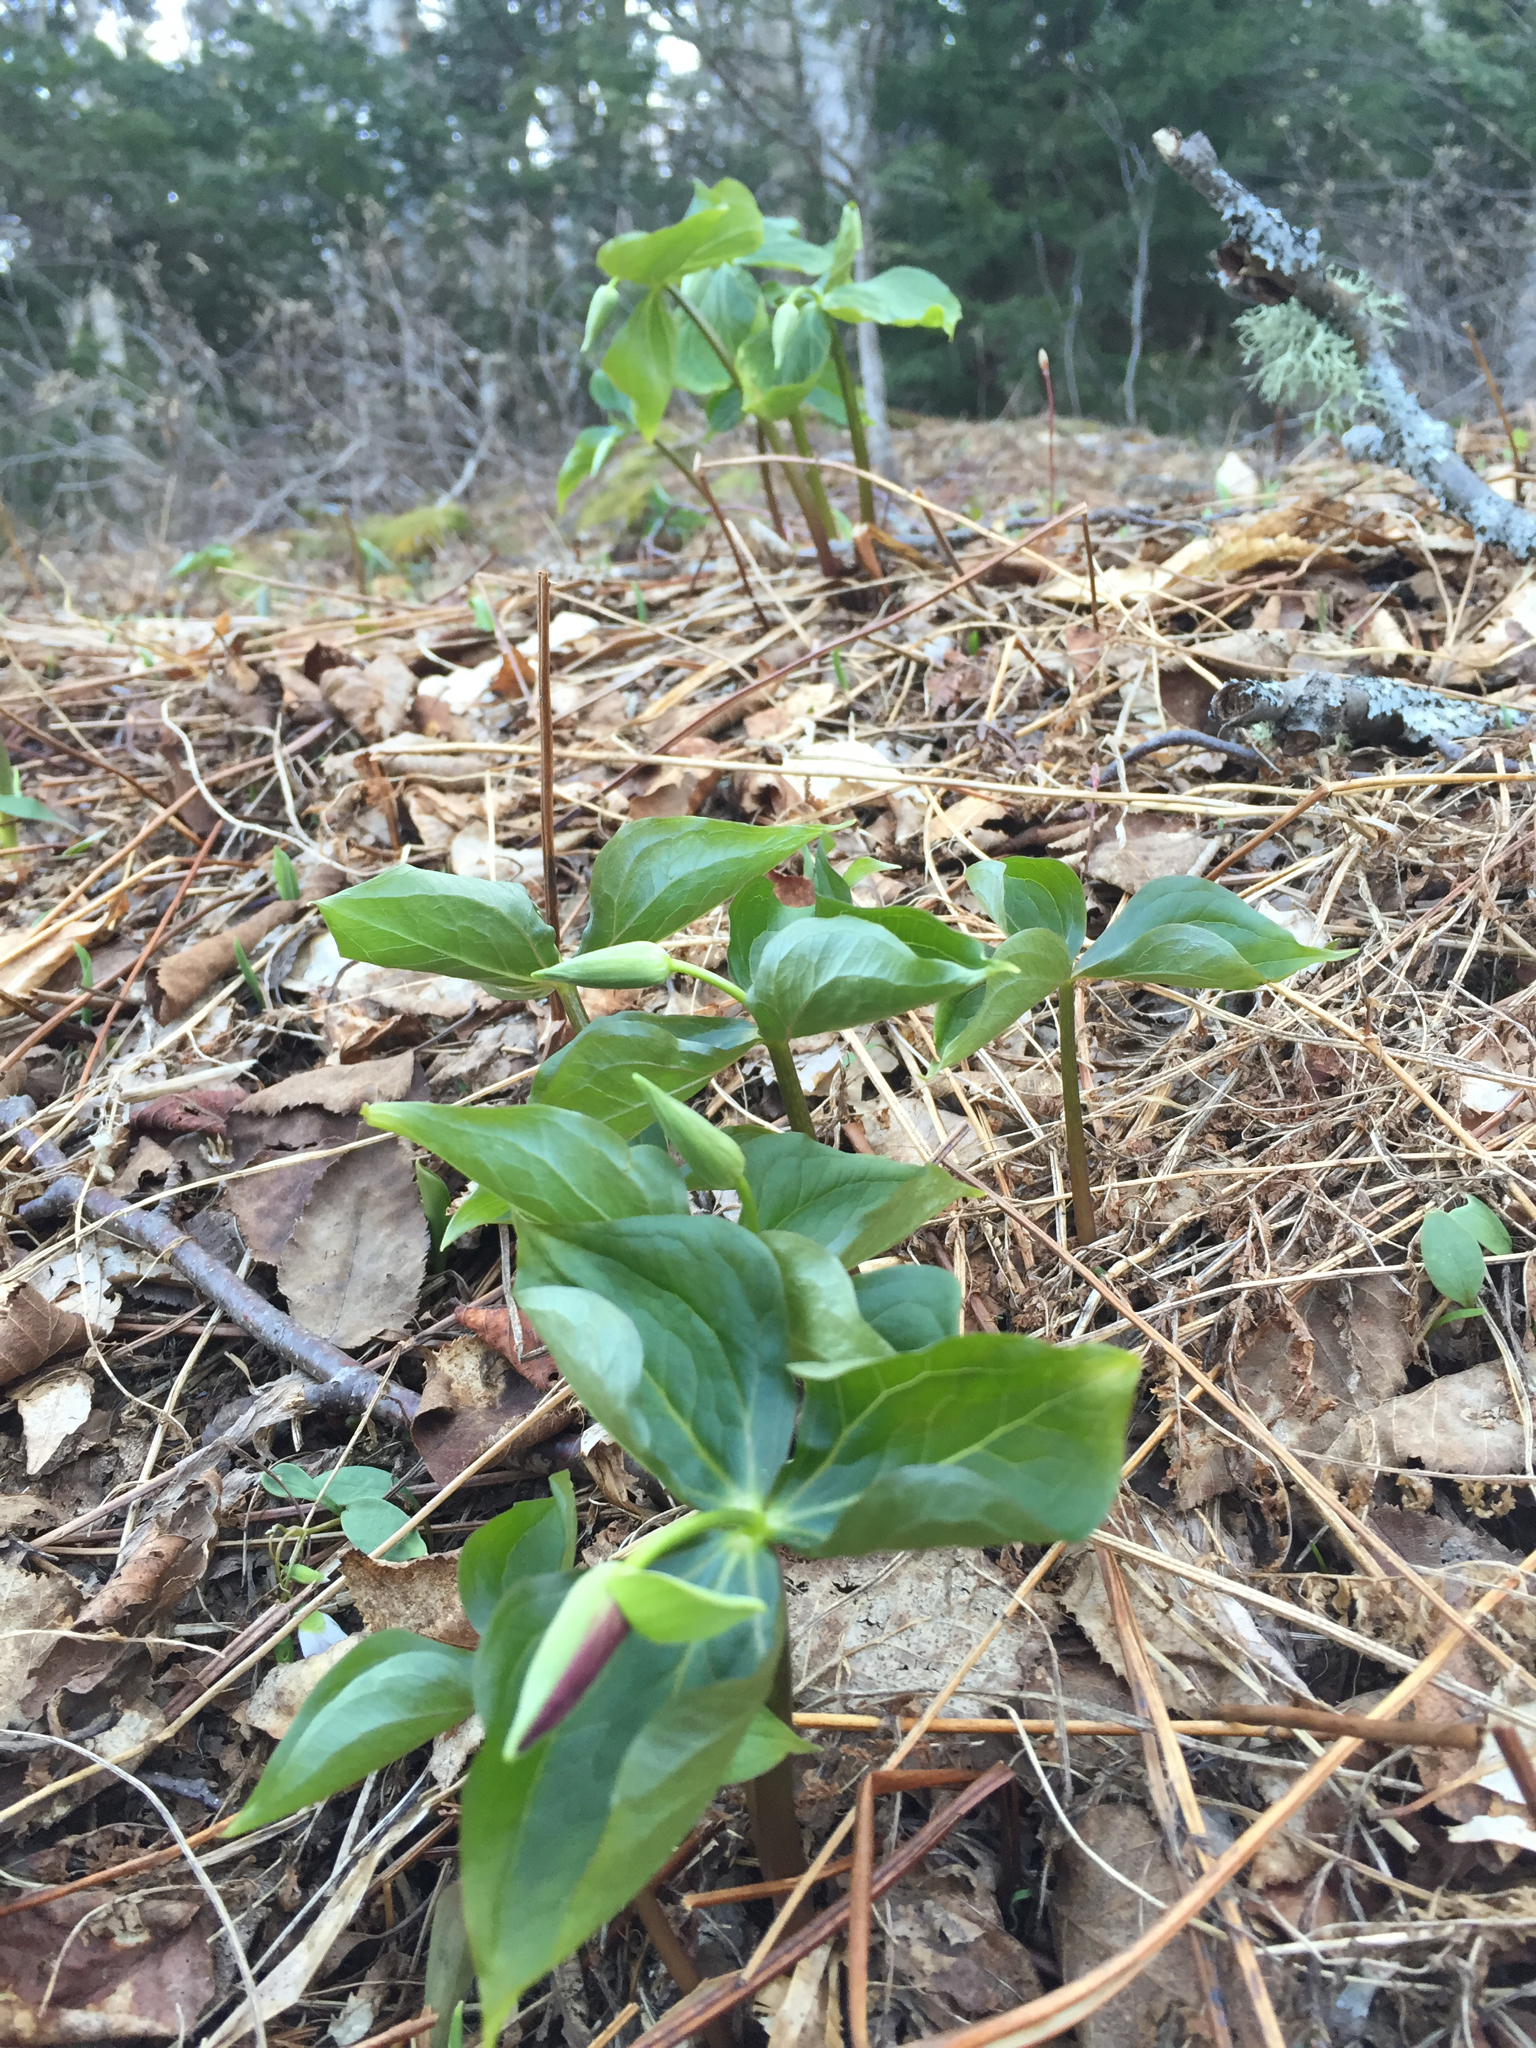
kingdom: Plantae
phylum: Tracheophyta
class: Liliopsida
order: Liliales
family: Melanthiaceae
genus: Trillium
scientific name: Trillium erectum
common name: Purple trillium
